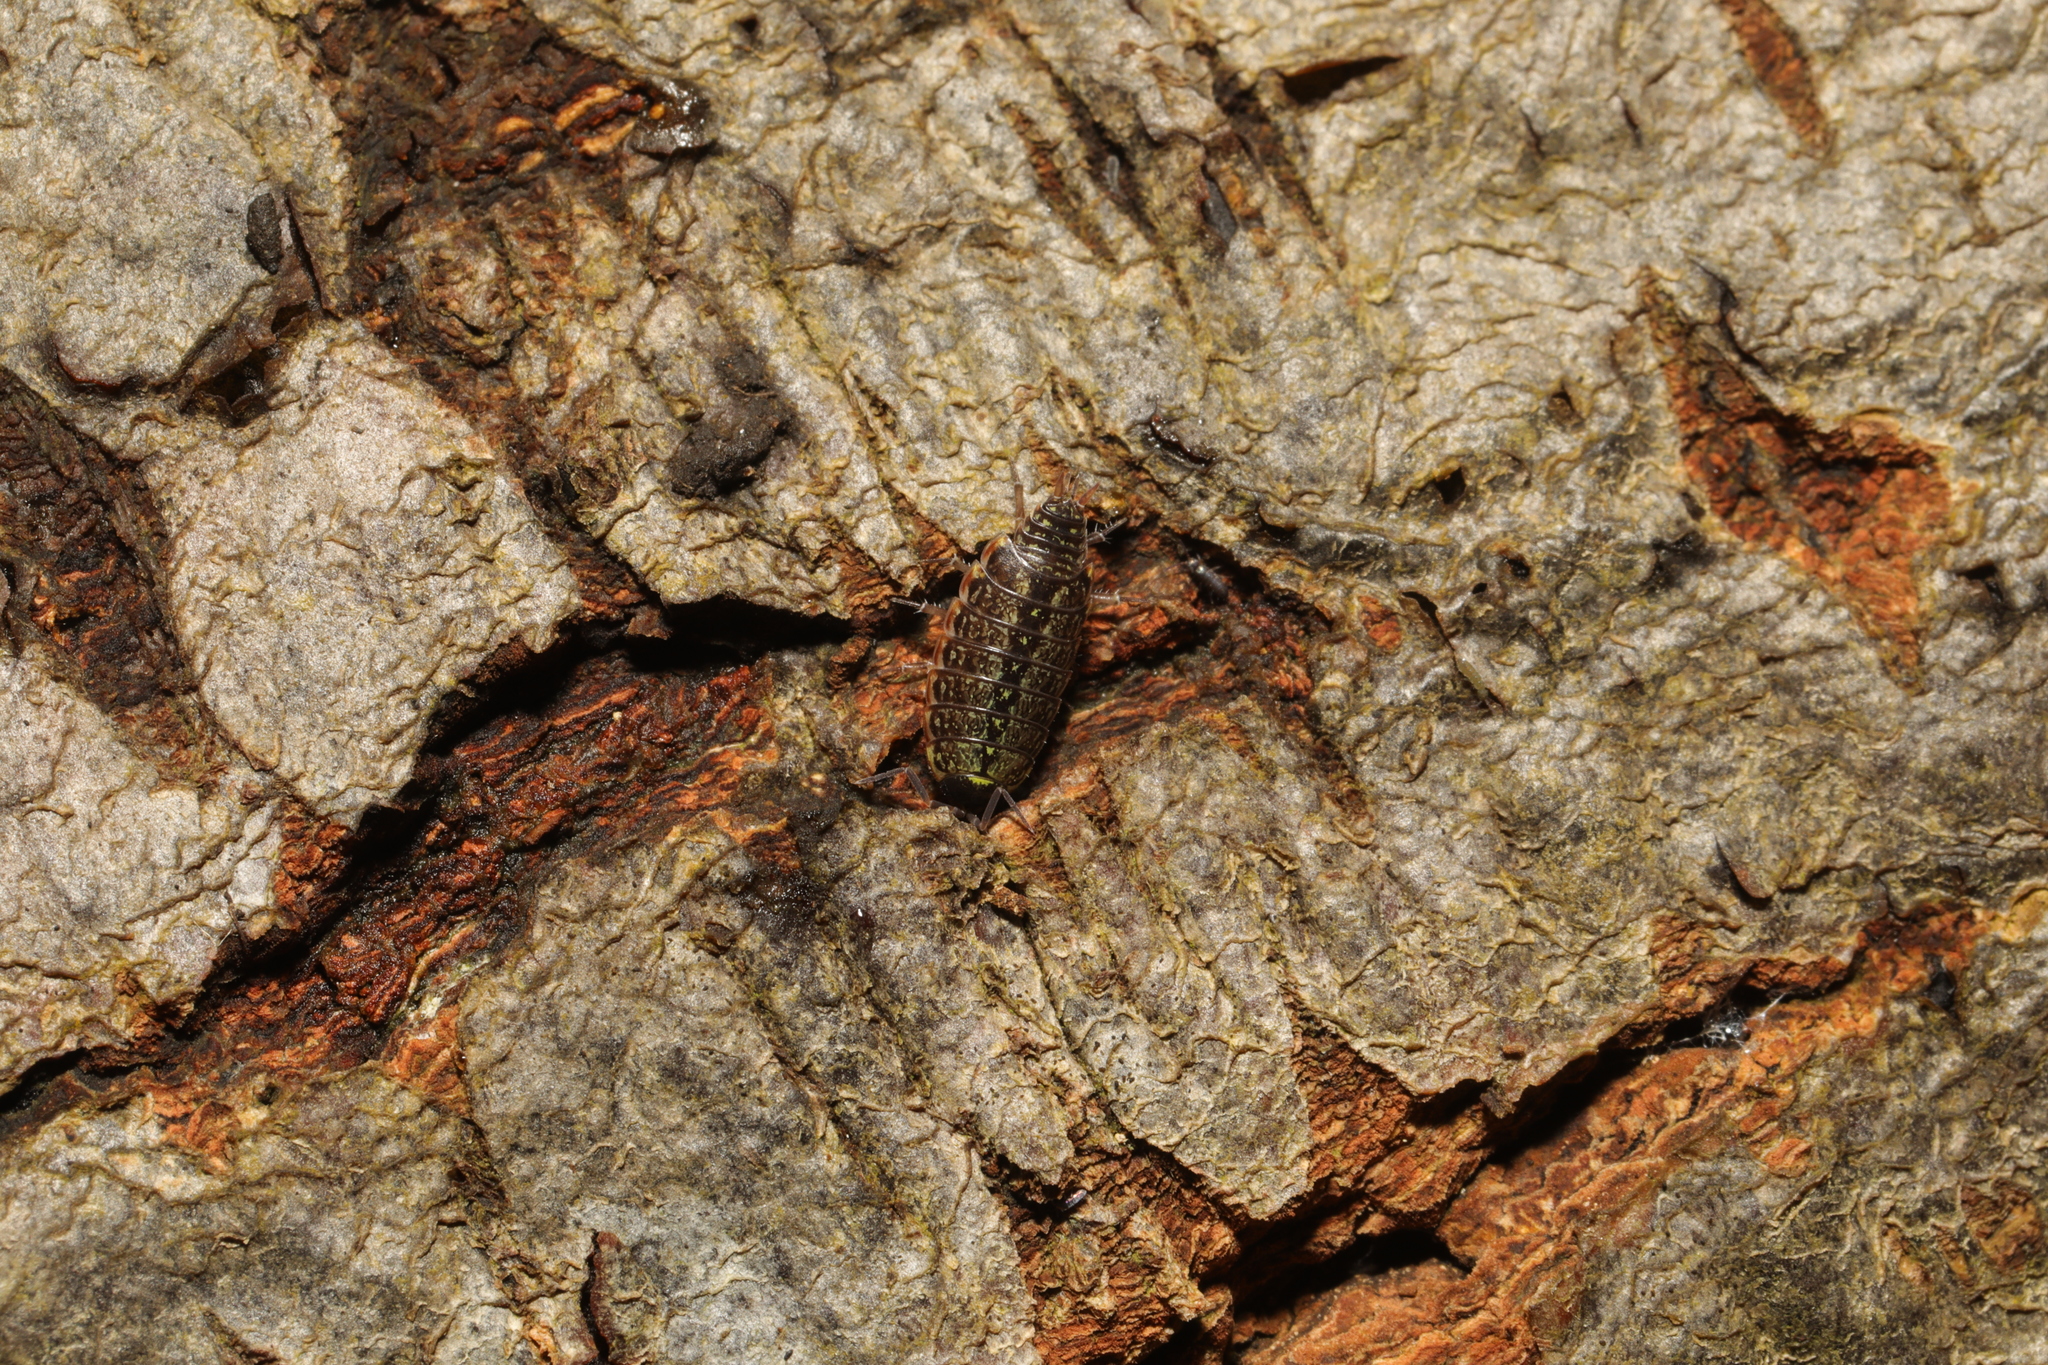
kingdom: Animalia
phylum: Arthropoda
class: Malacostraca
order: Isopoda
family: Philosciidae
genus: Philoscia
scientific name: Philoscia muscorum
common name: Common striped woodlouse
